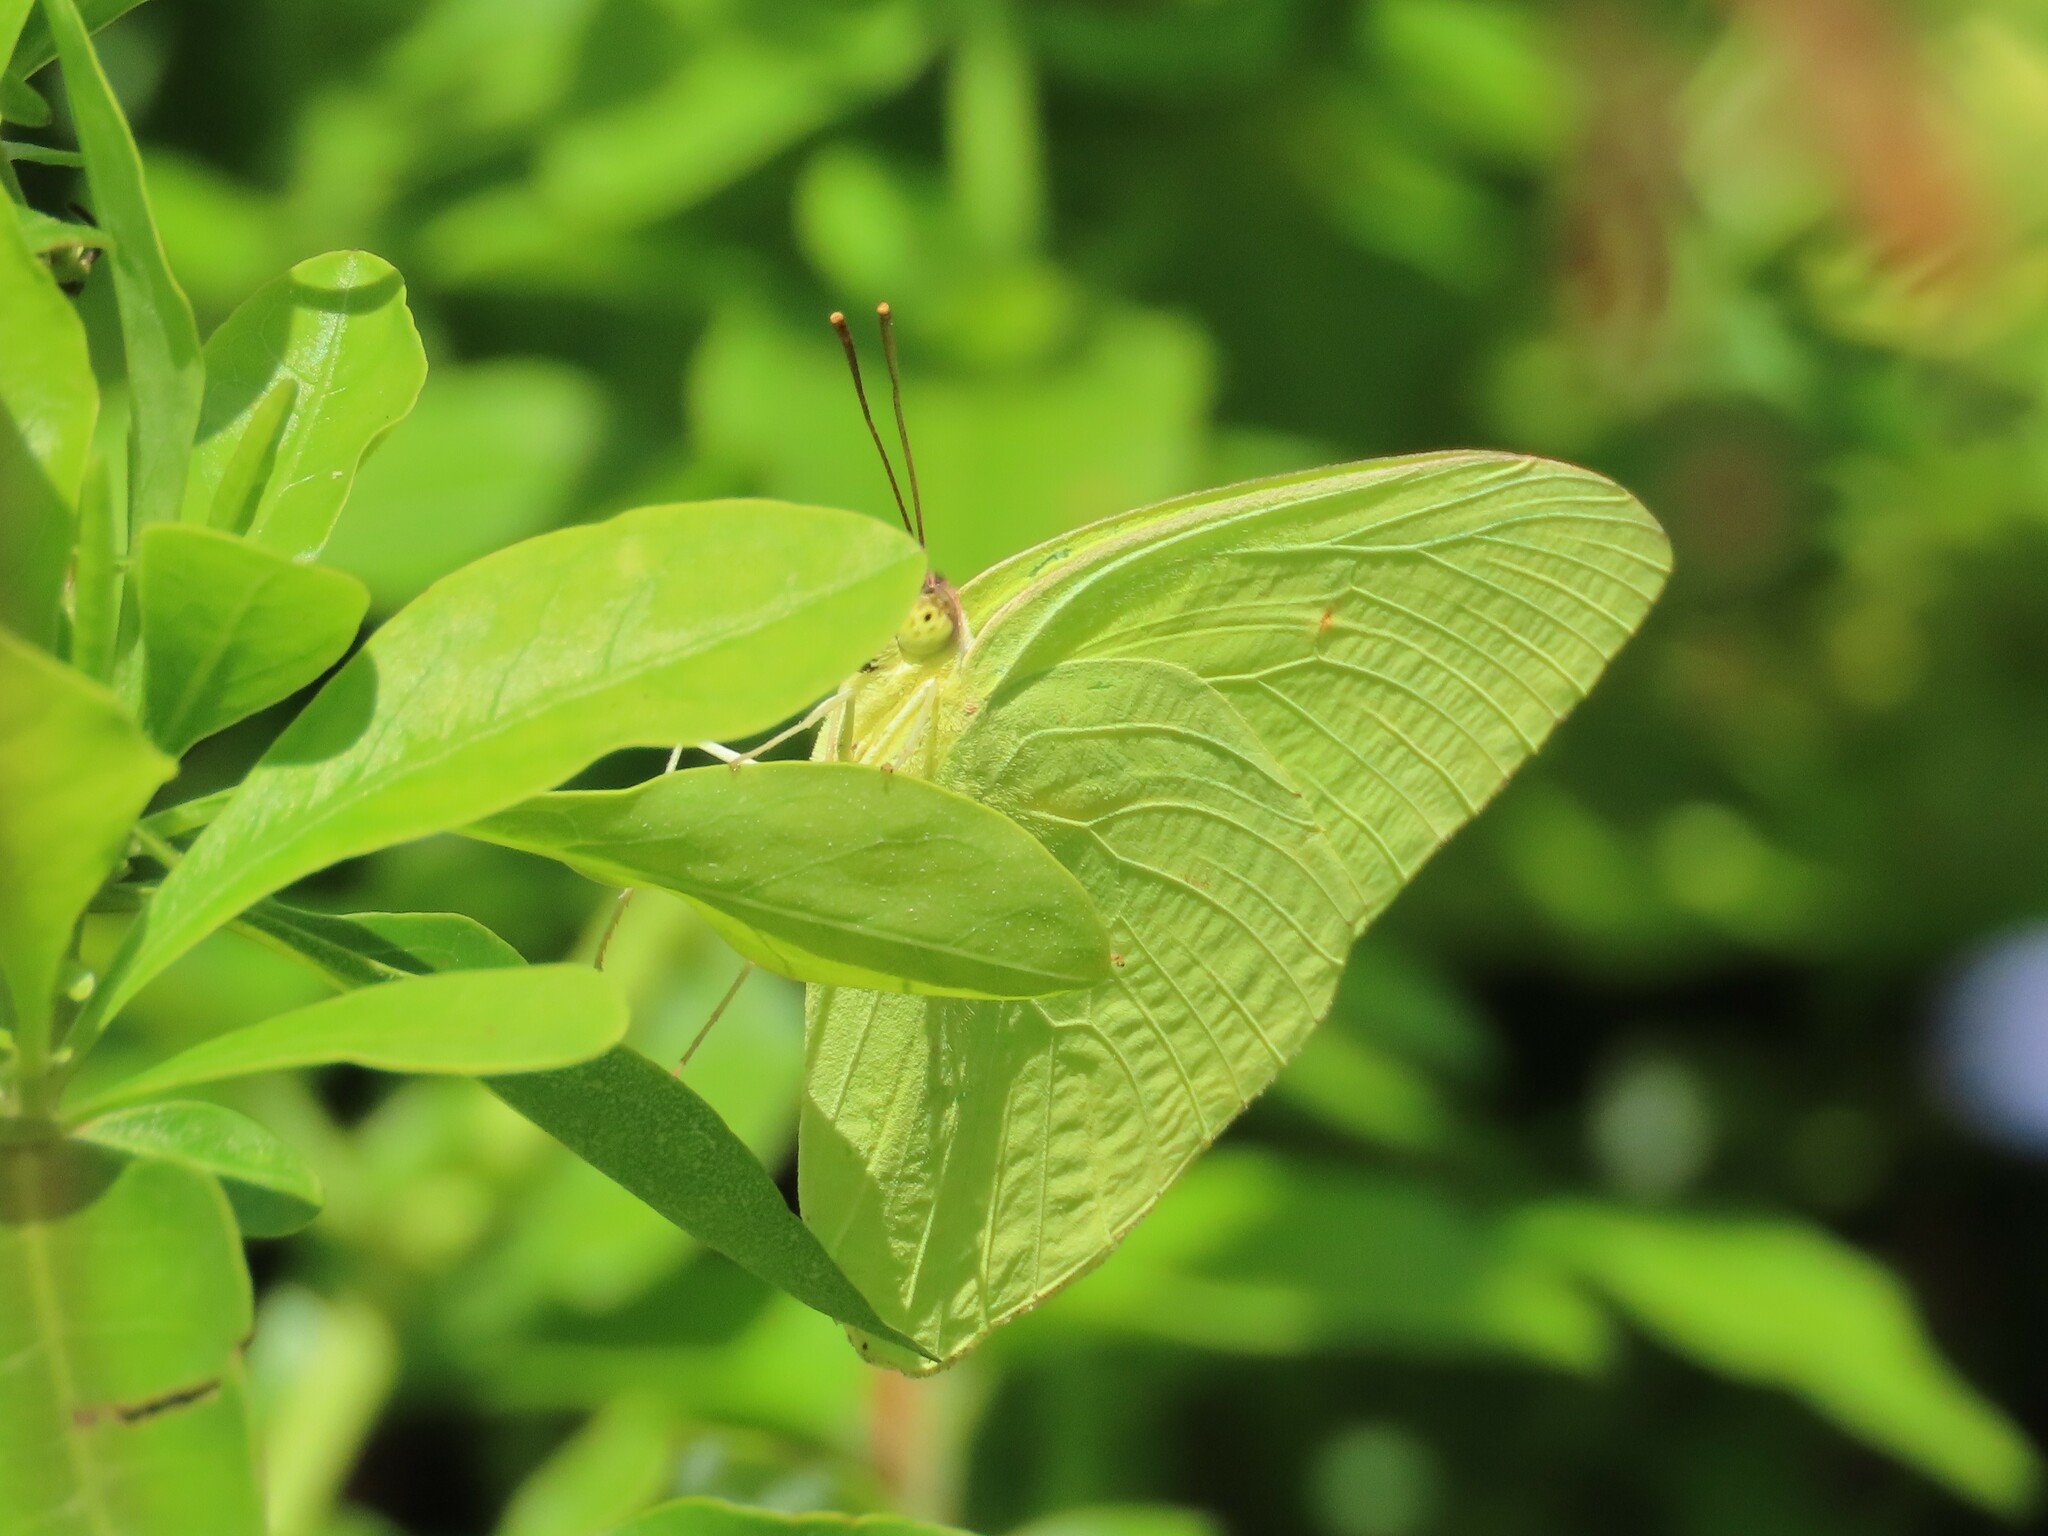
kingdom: Animalia
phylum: Arthropoda
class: Insecta
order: Lepidoptera
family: Pieridae
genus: Phoebis
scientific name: Phoebis sennae
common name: Cloudless sulphur
